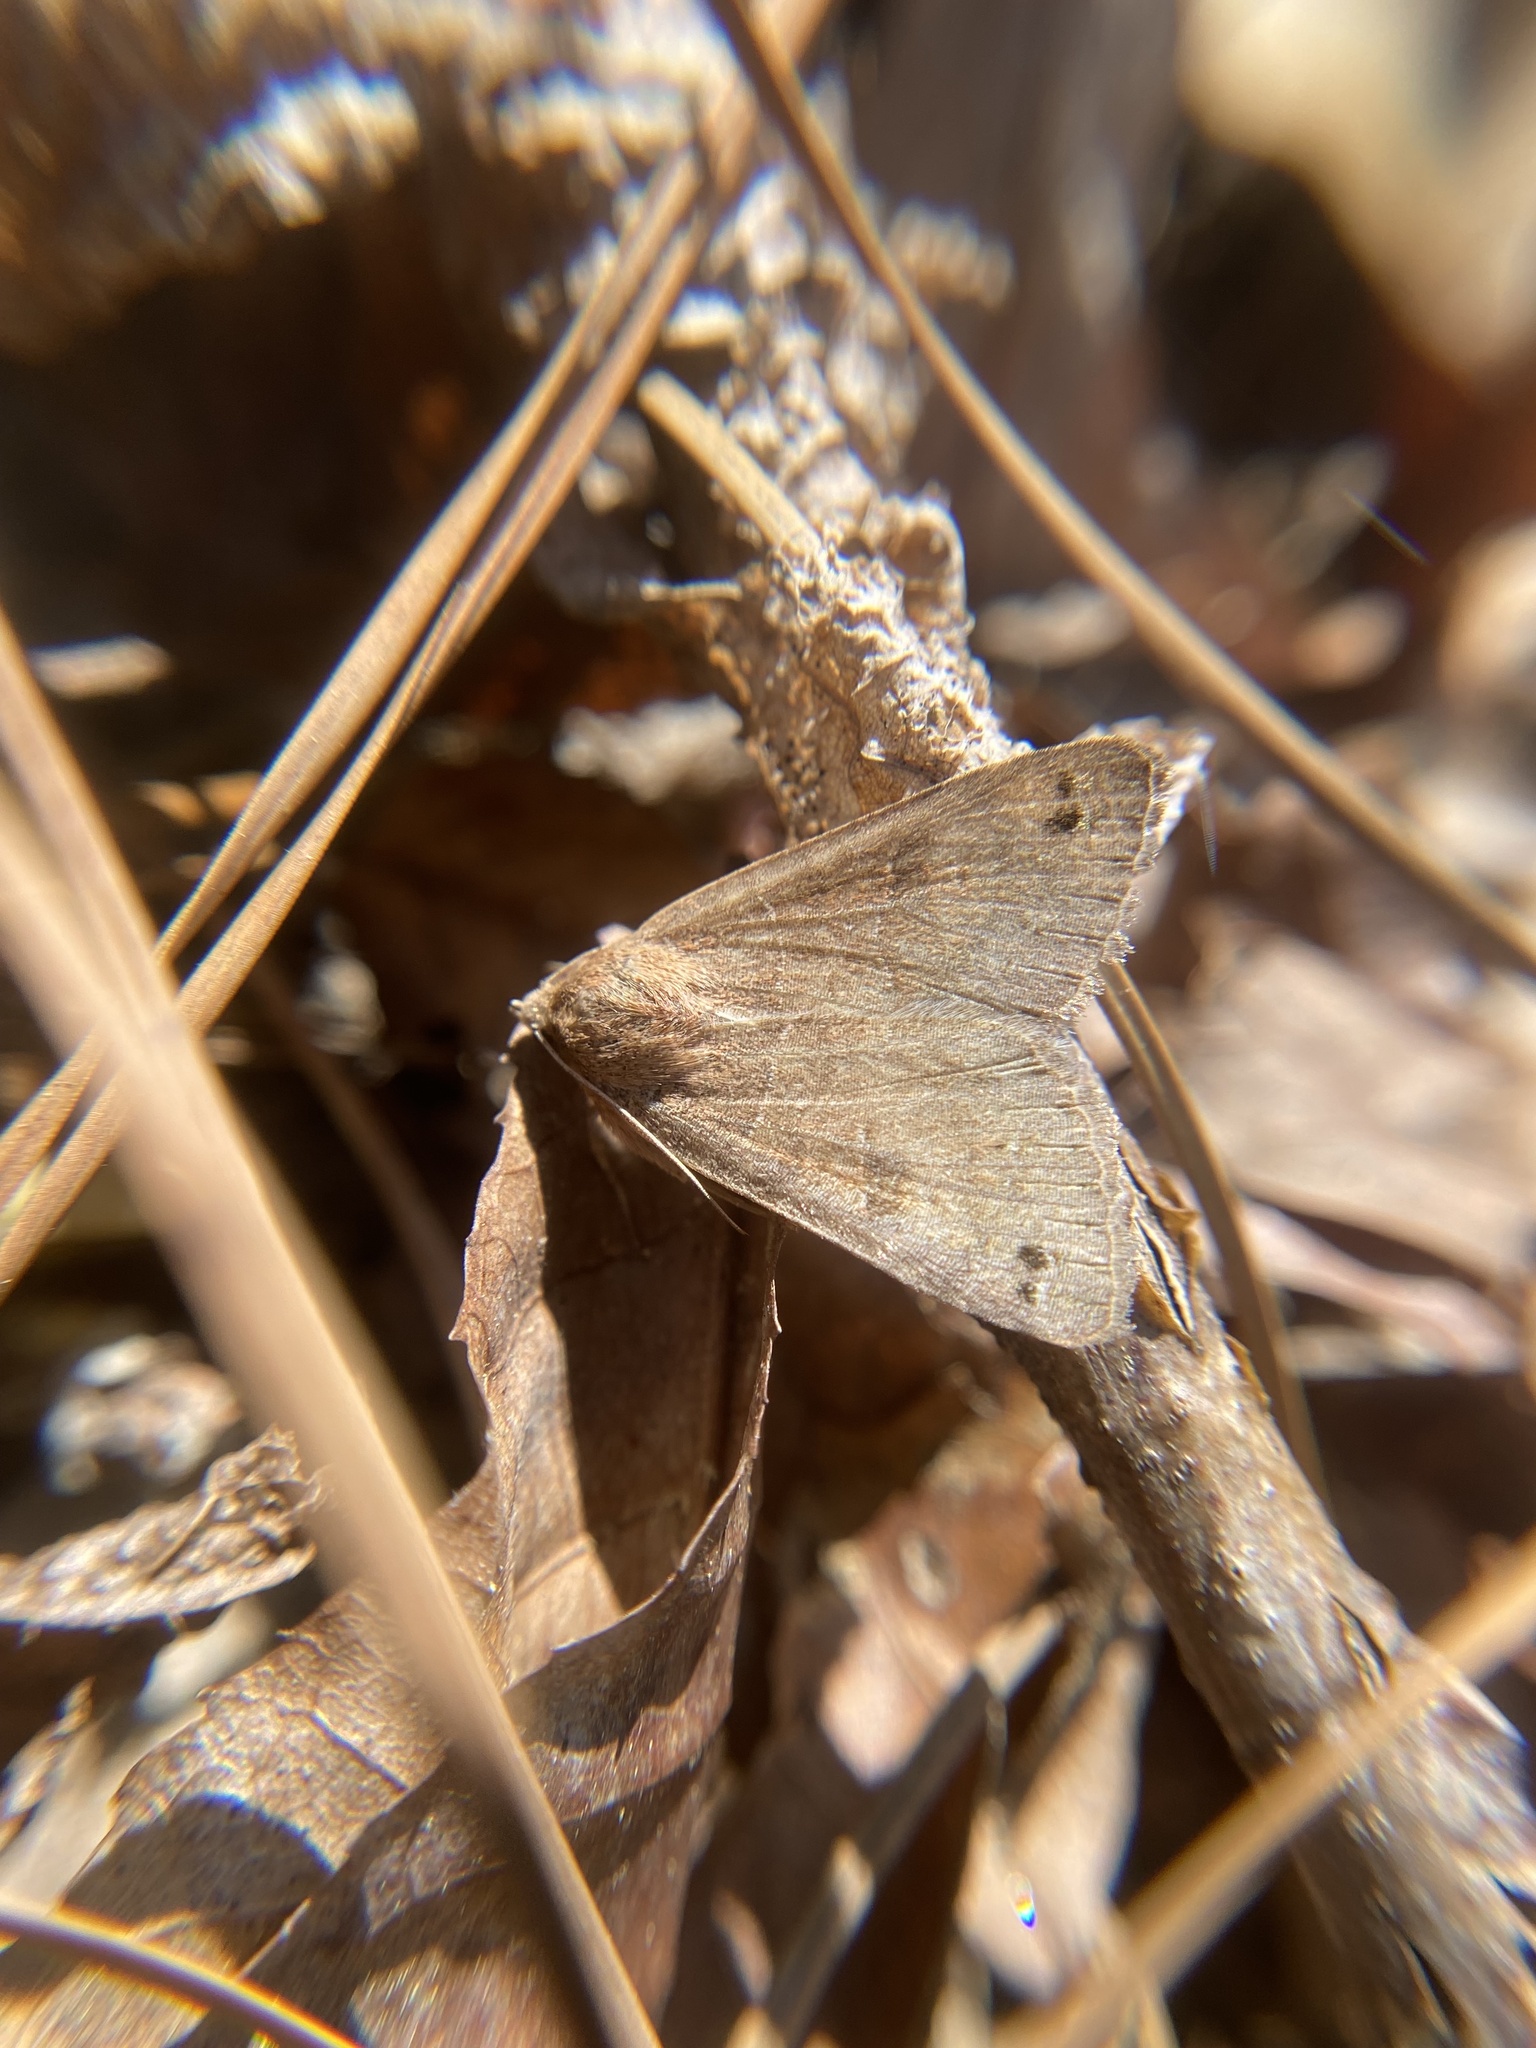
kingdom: Animalia
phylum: Arthropoda
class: Insecta
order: Lepidoptera
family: Erebidae
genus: Cissusa
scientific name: Cissusa spadix
